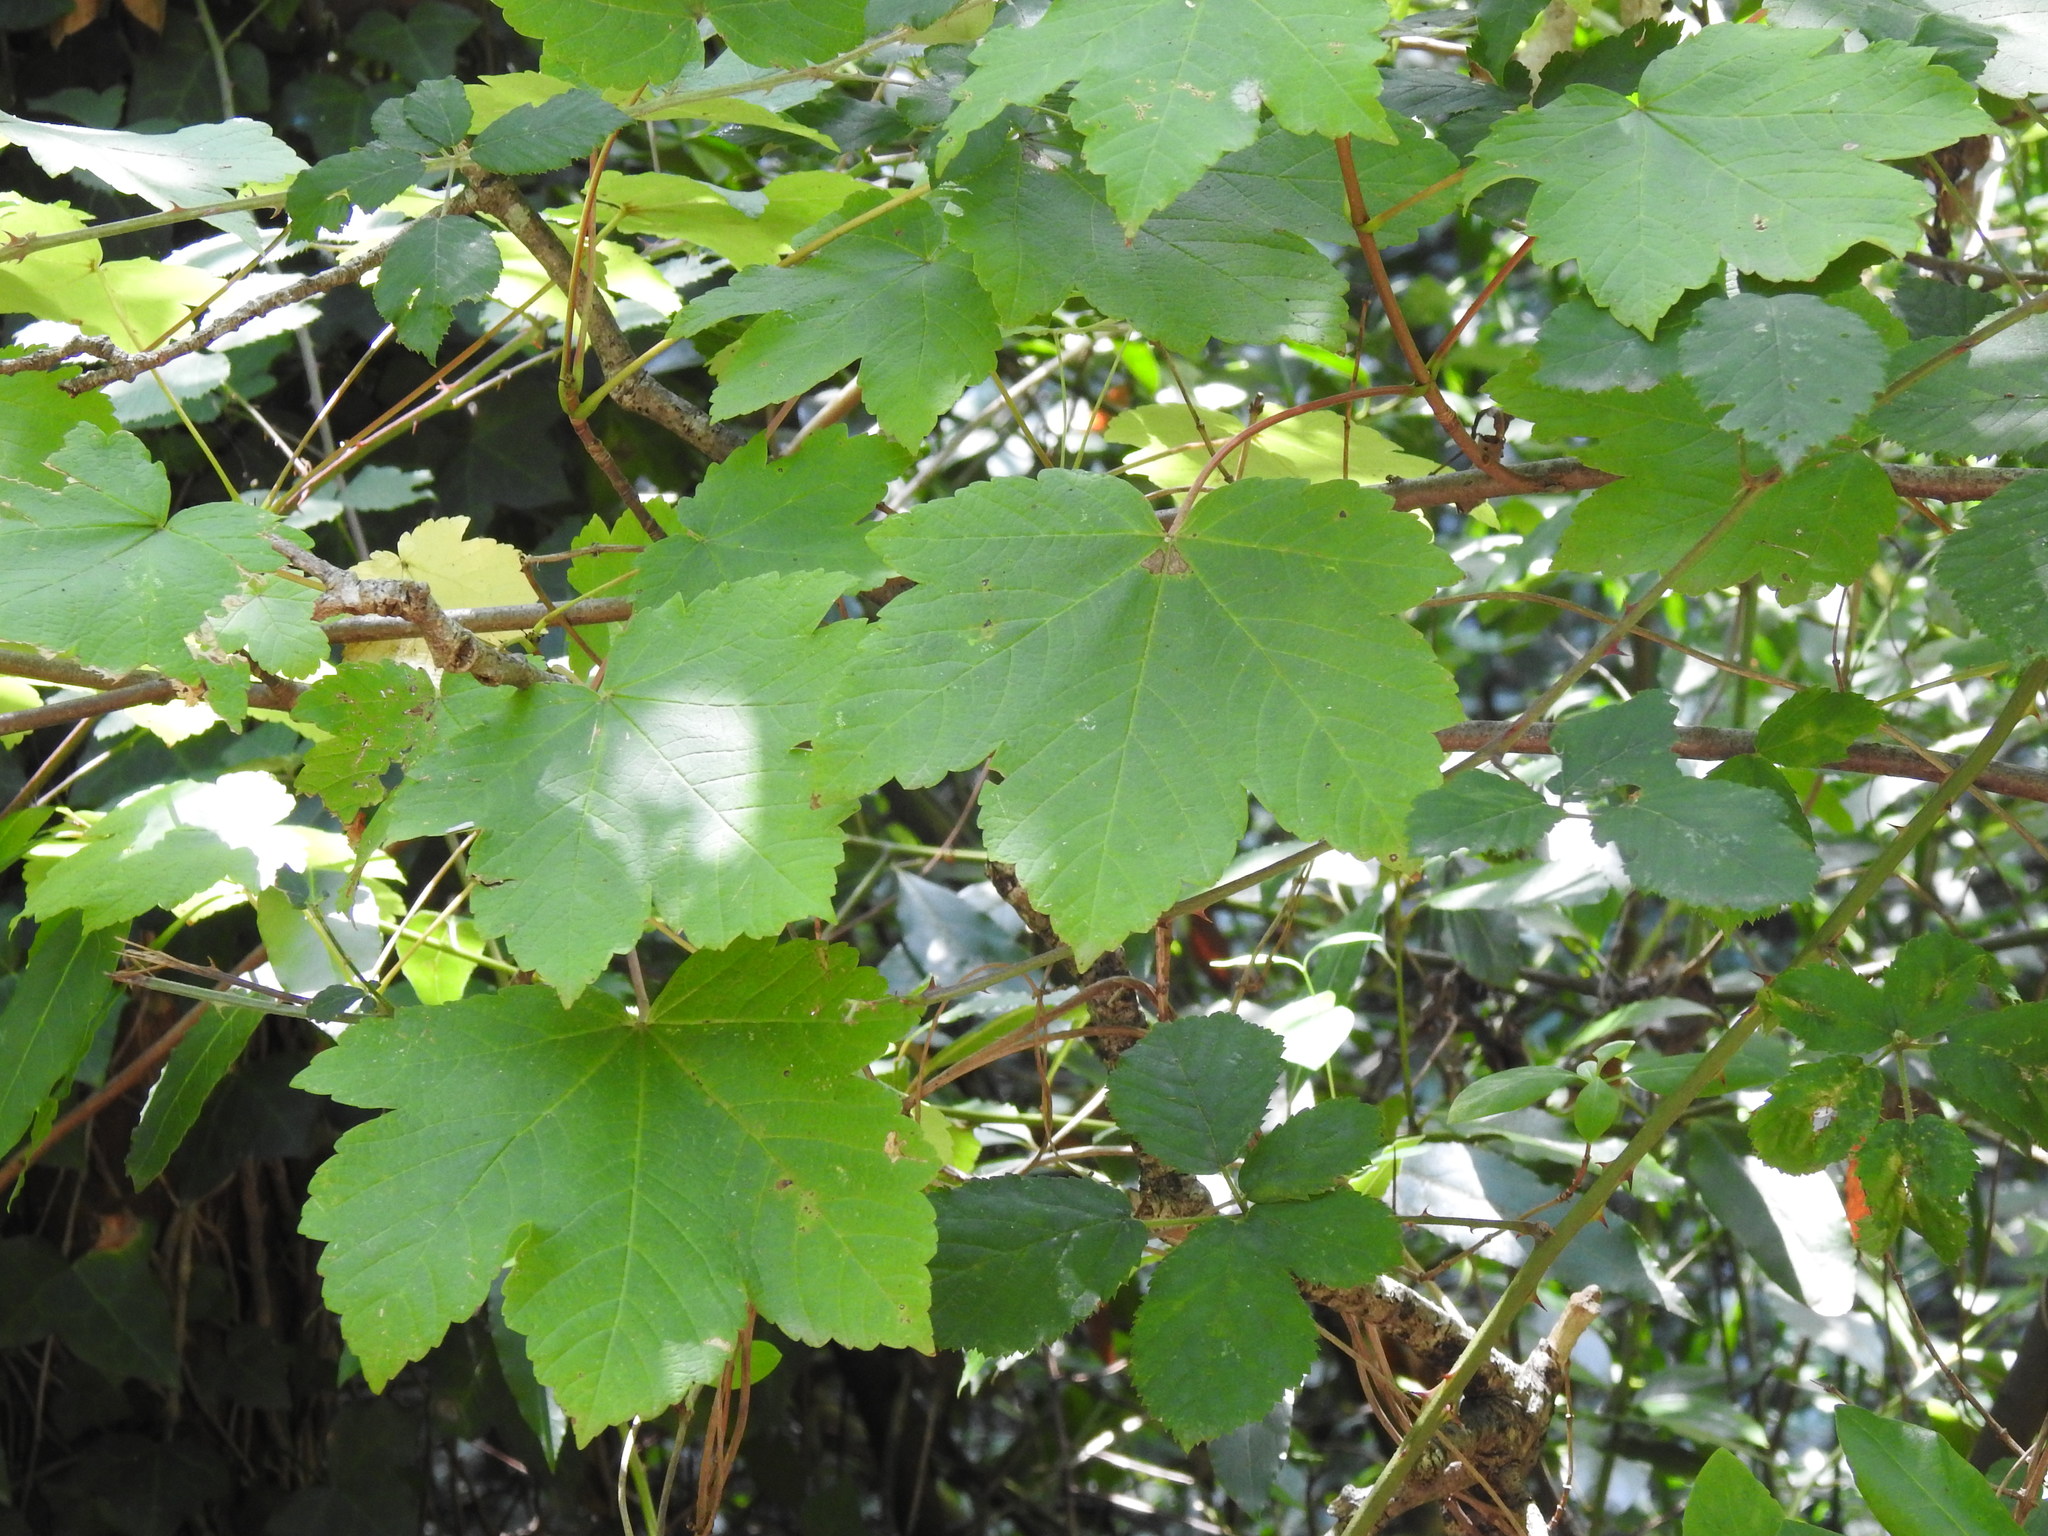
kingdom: Plantae
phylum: Tracheophyta
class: Magnoliopsida
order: Sapindales
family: Sapindaceae
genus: Acer
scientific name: Acer pseudoplatanus
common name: Sycamore
